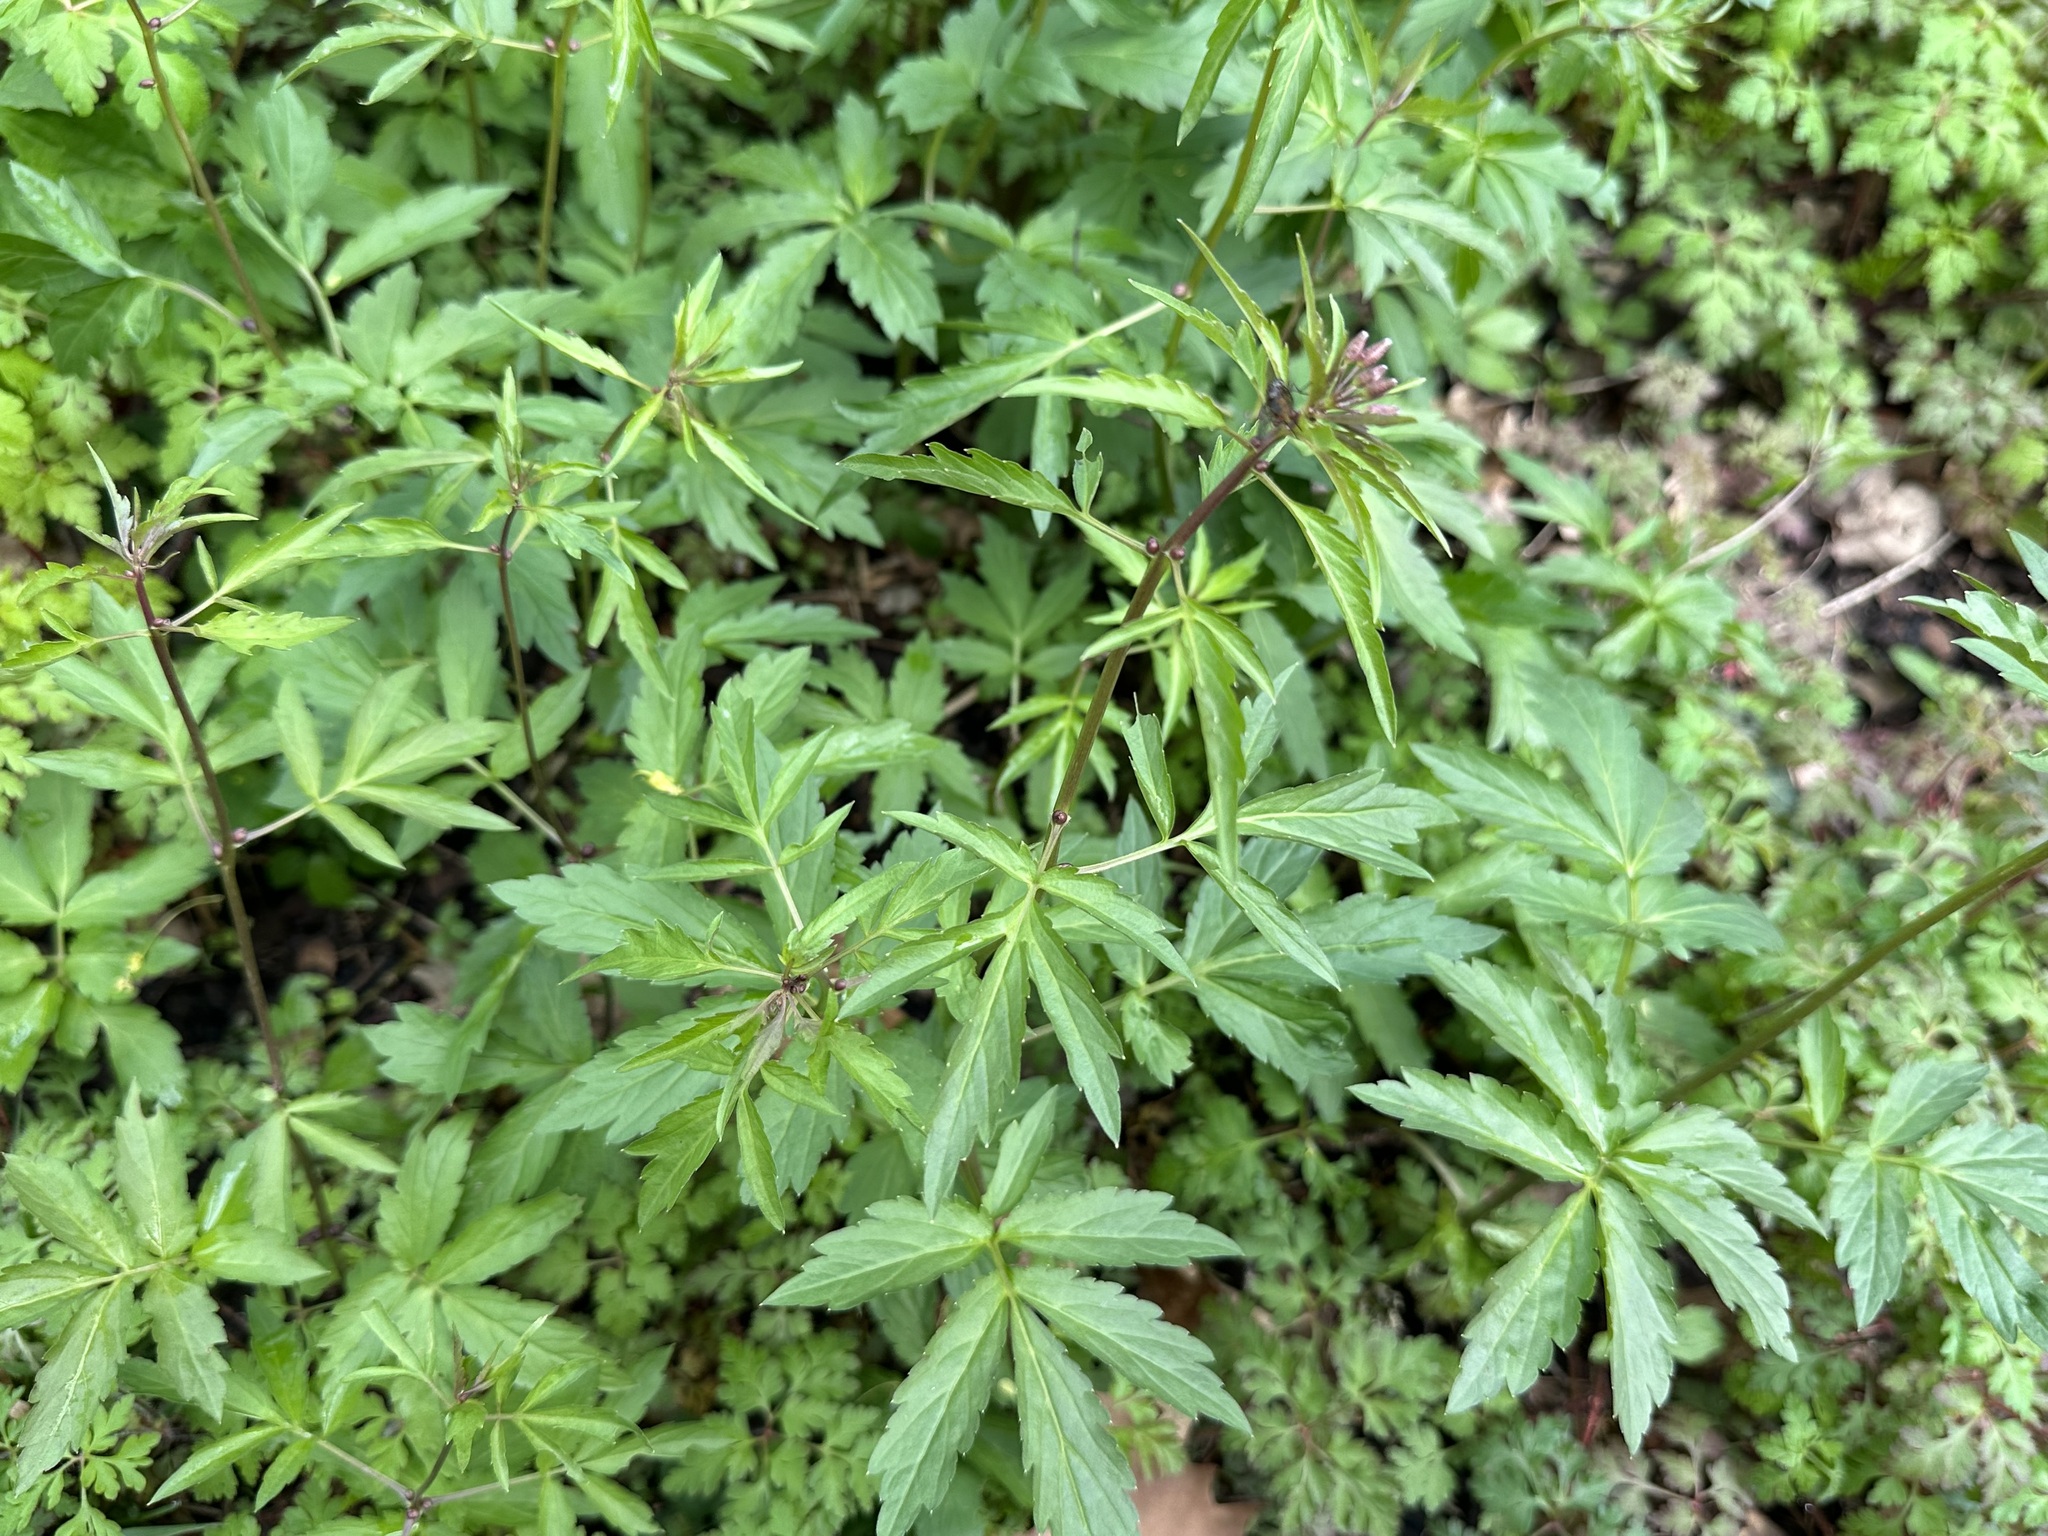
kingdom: Plantae
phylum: Tracheophyta
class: Magnoliopsida
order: Brassicales
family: Brassicaceae
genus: Cardamine
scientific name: Cardamine bulbifera
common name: Coralroot bittercress
